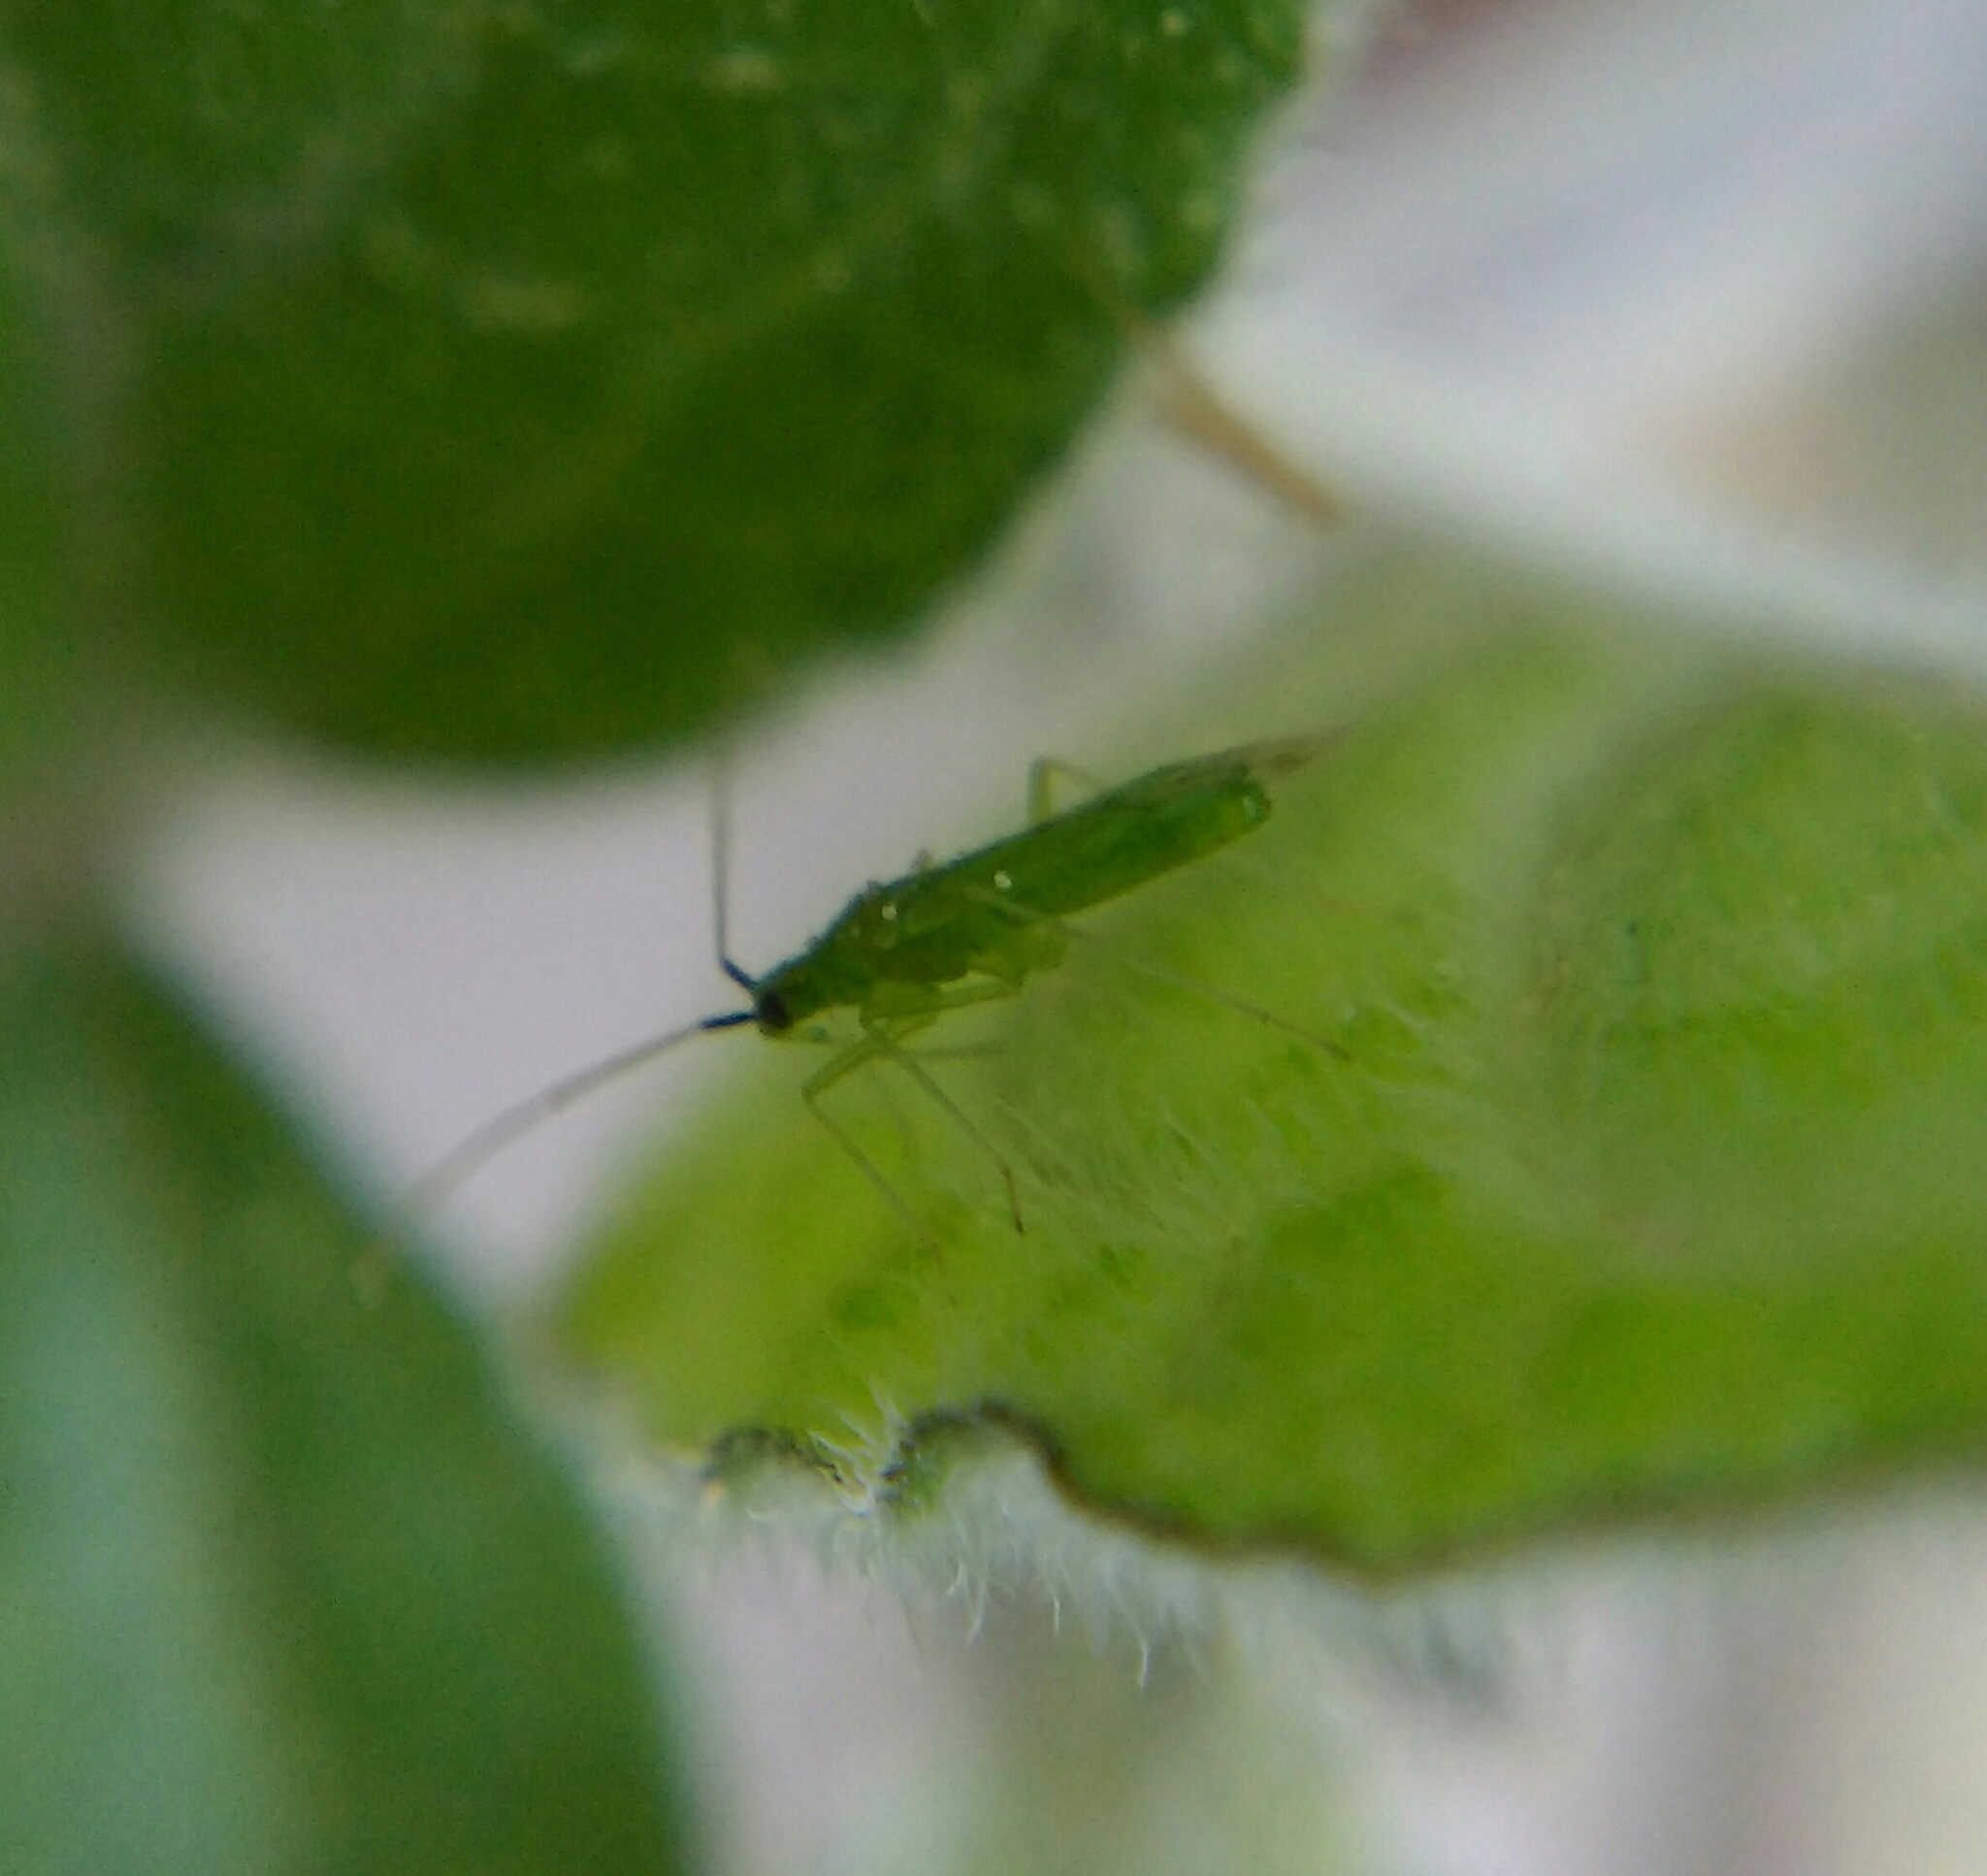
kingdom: Animalia
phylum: Arthropoda
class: Insecta
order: Hemiptera
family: Miridae
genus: Macrolophus
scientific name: Macrolophus pygmaeus
